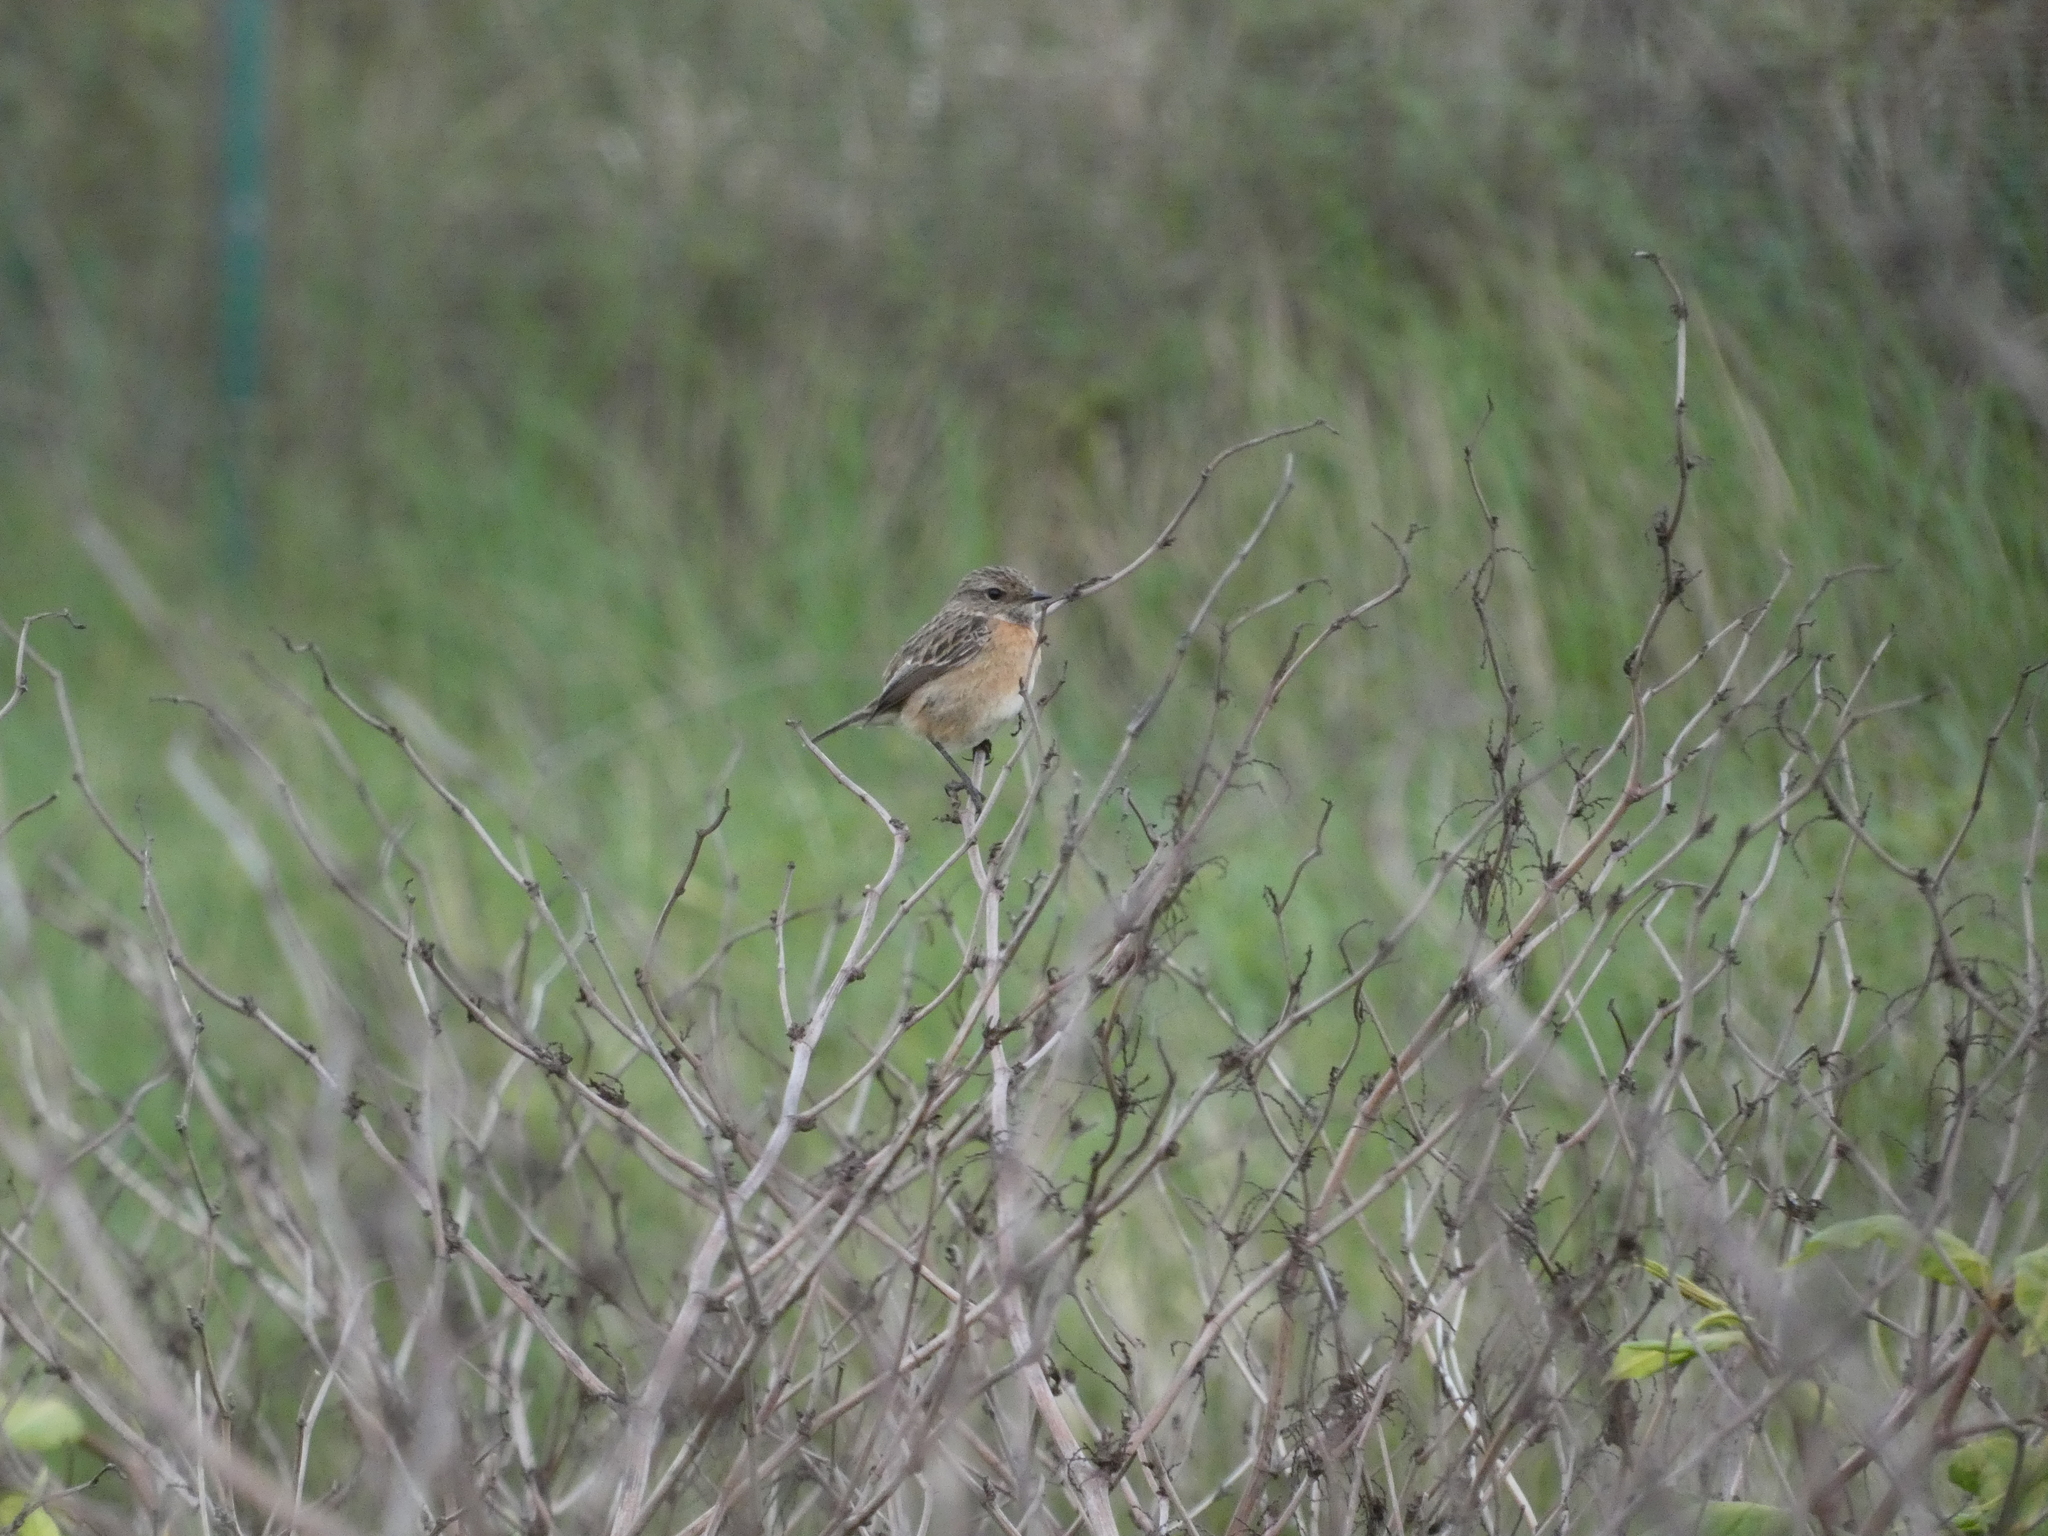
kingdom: Animalia
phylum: Chordata
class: Aves
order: Passeriformes
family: Muscicapidae
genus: Saxicola
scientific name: Saxicola rubicola
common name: European stonechat
